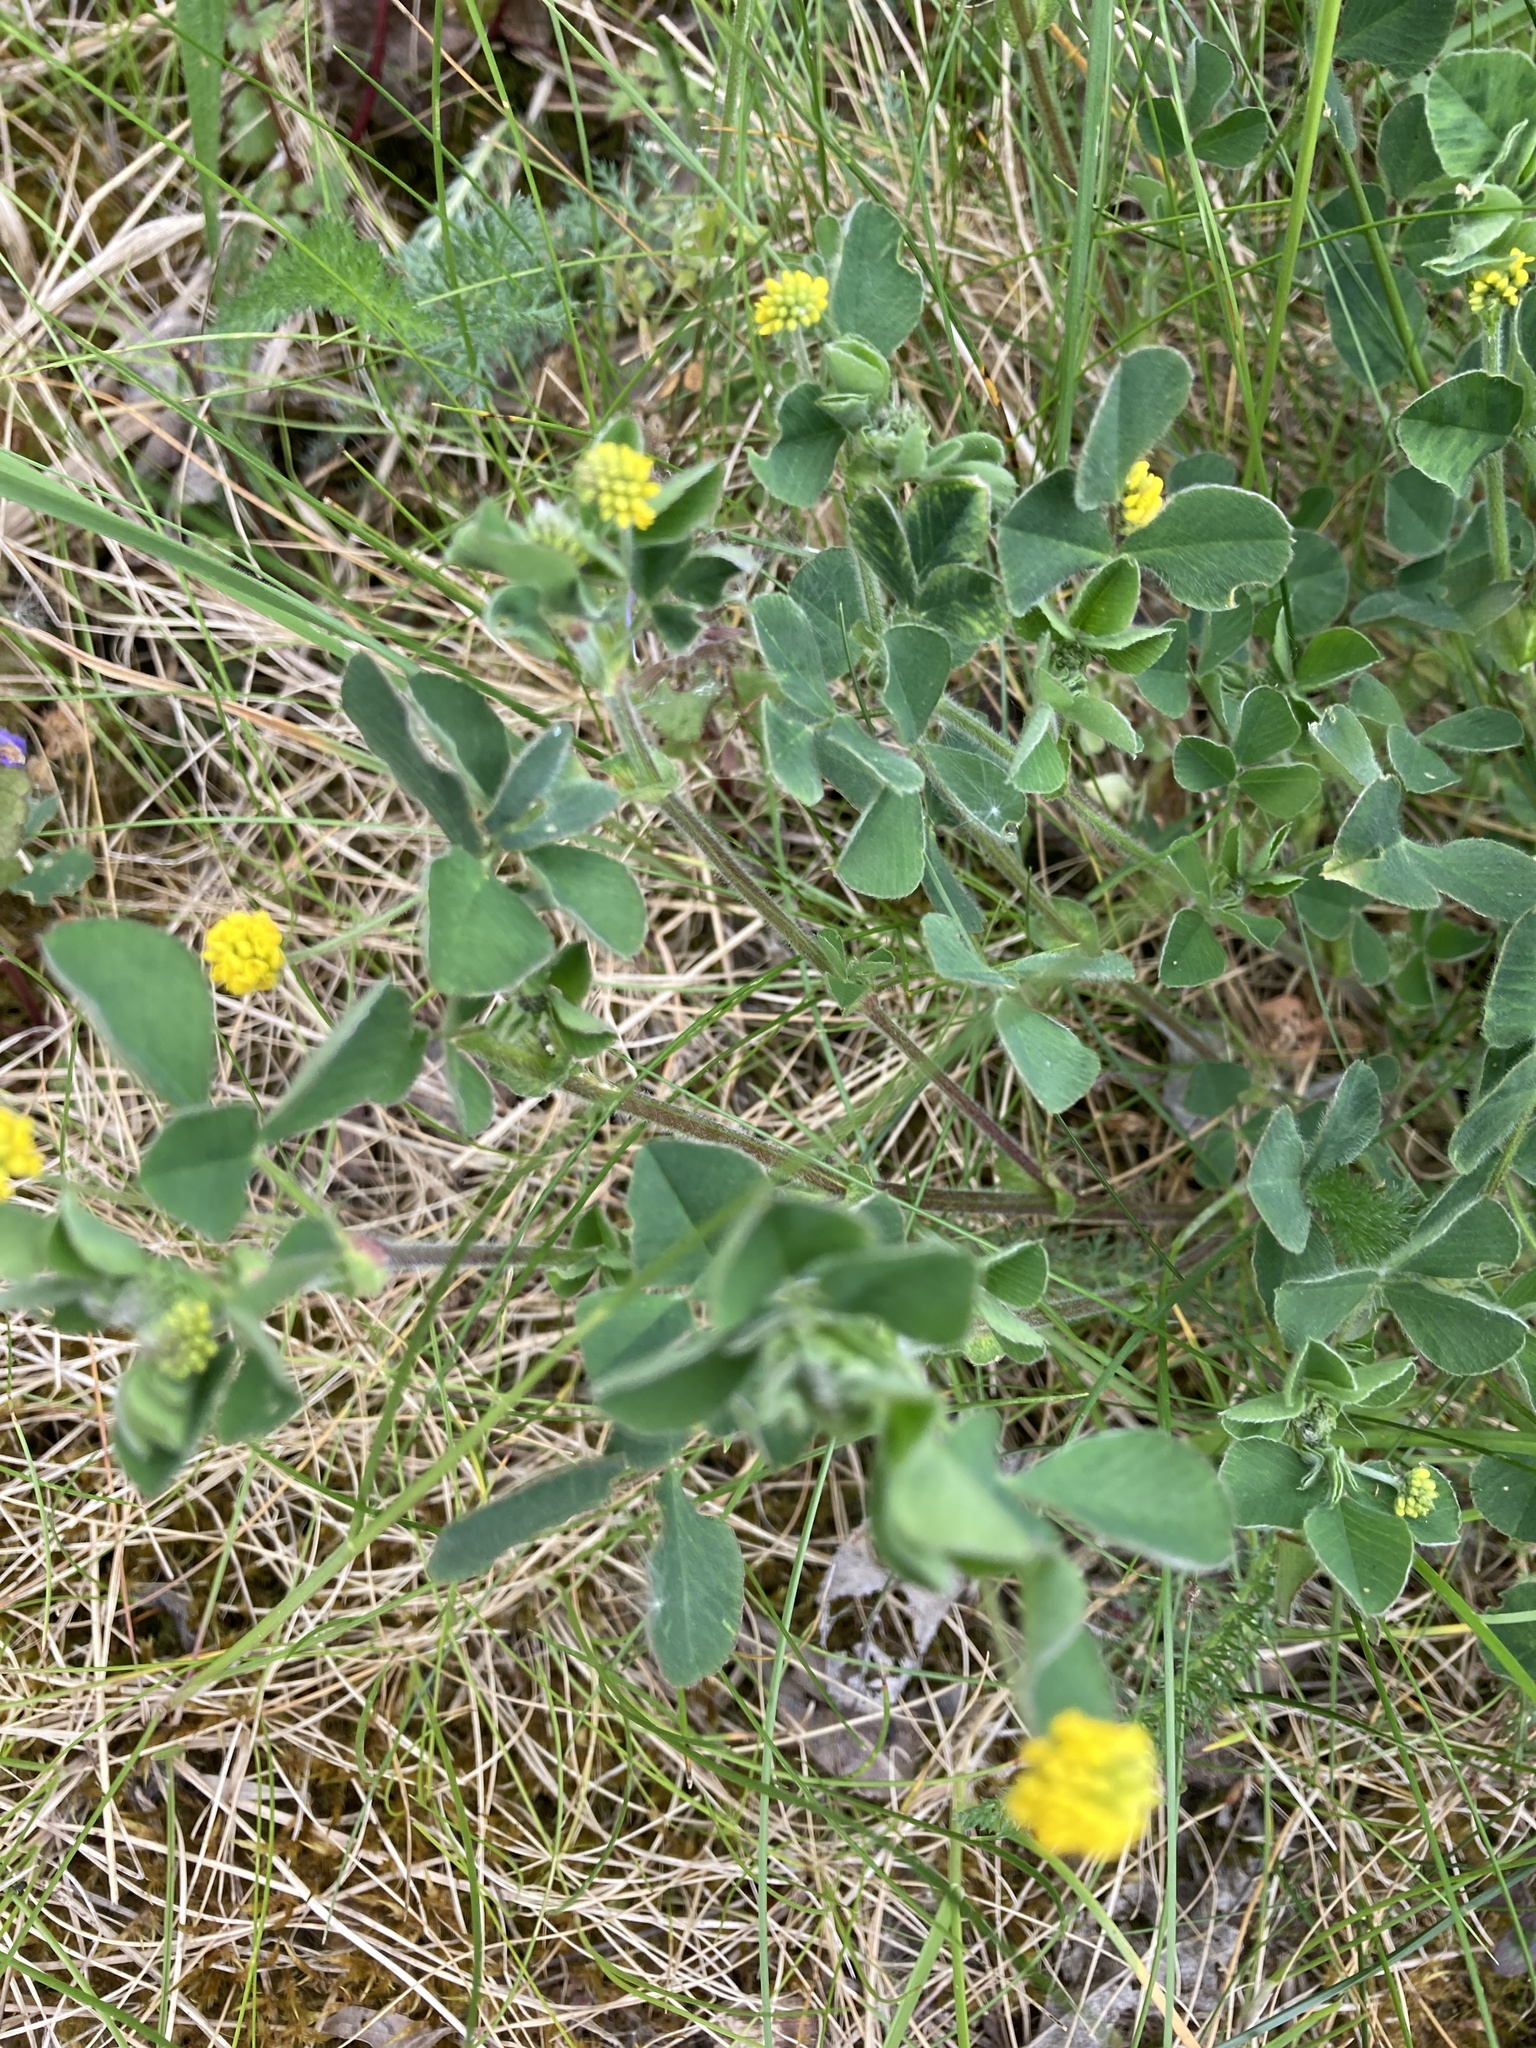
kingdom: Plantae
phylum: Tracheophyta
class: Magnoliopsida
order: Fabales
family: Fabaceae
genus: Medicago
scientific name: Medicago lupulina
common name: Black medick
